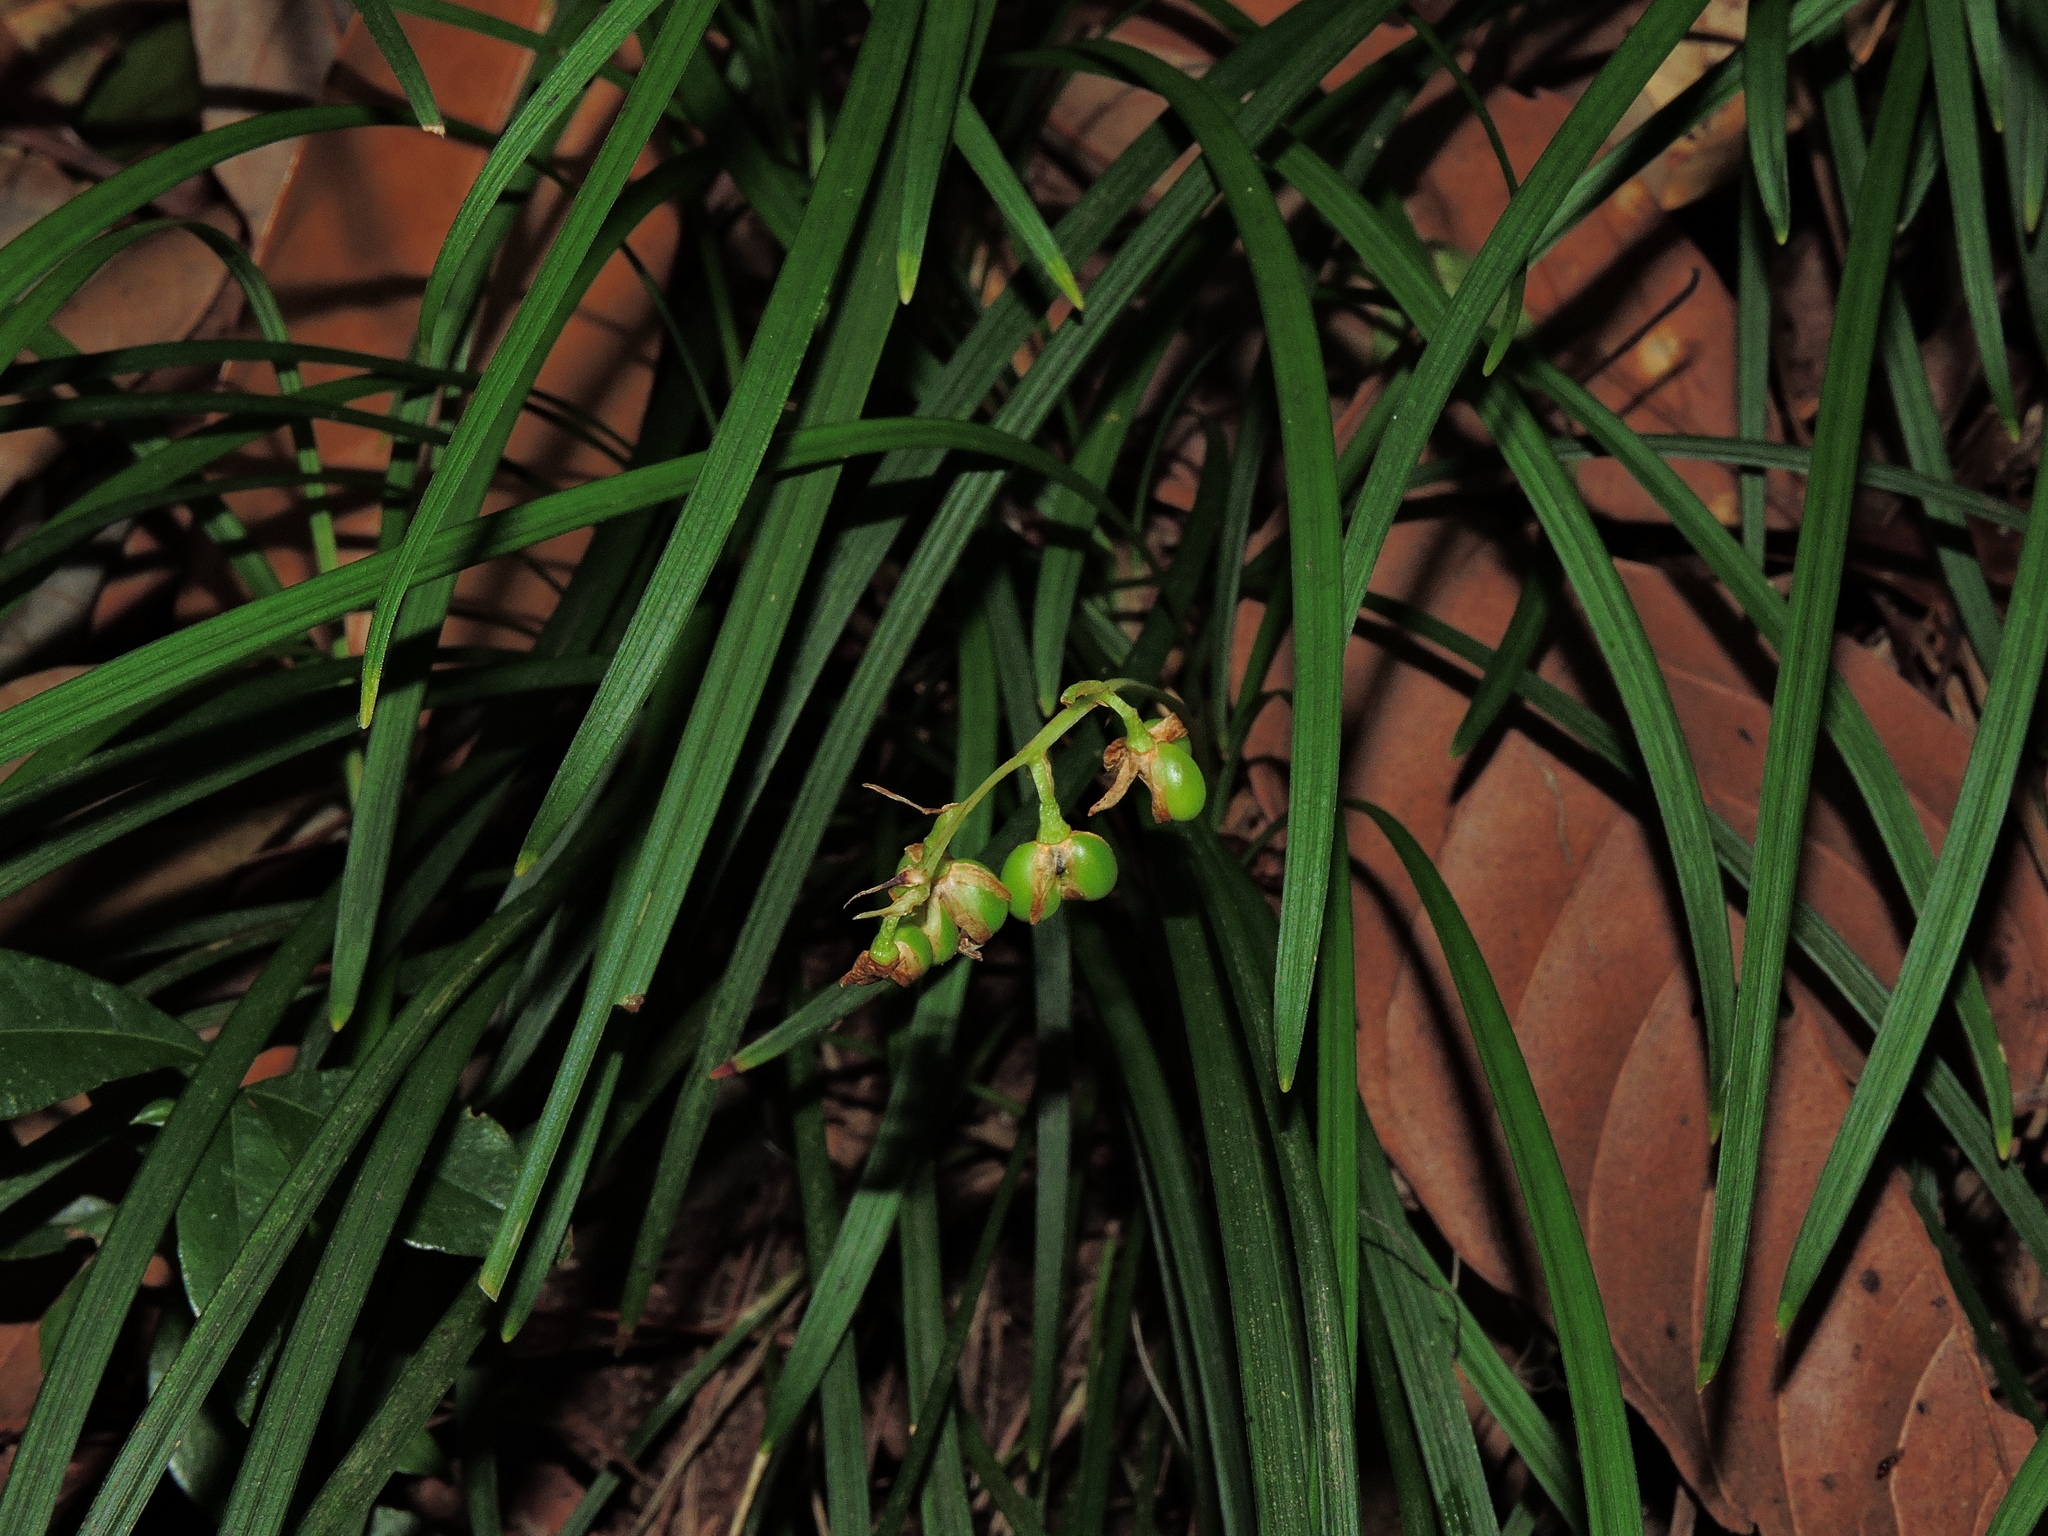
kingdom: Plantae
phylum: Tracheophyta
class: Liliopsida
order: Asparagales
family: Asparagaceae
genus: Ophiopogon
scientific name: Ophiopogon intermedius
